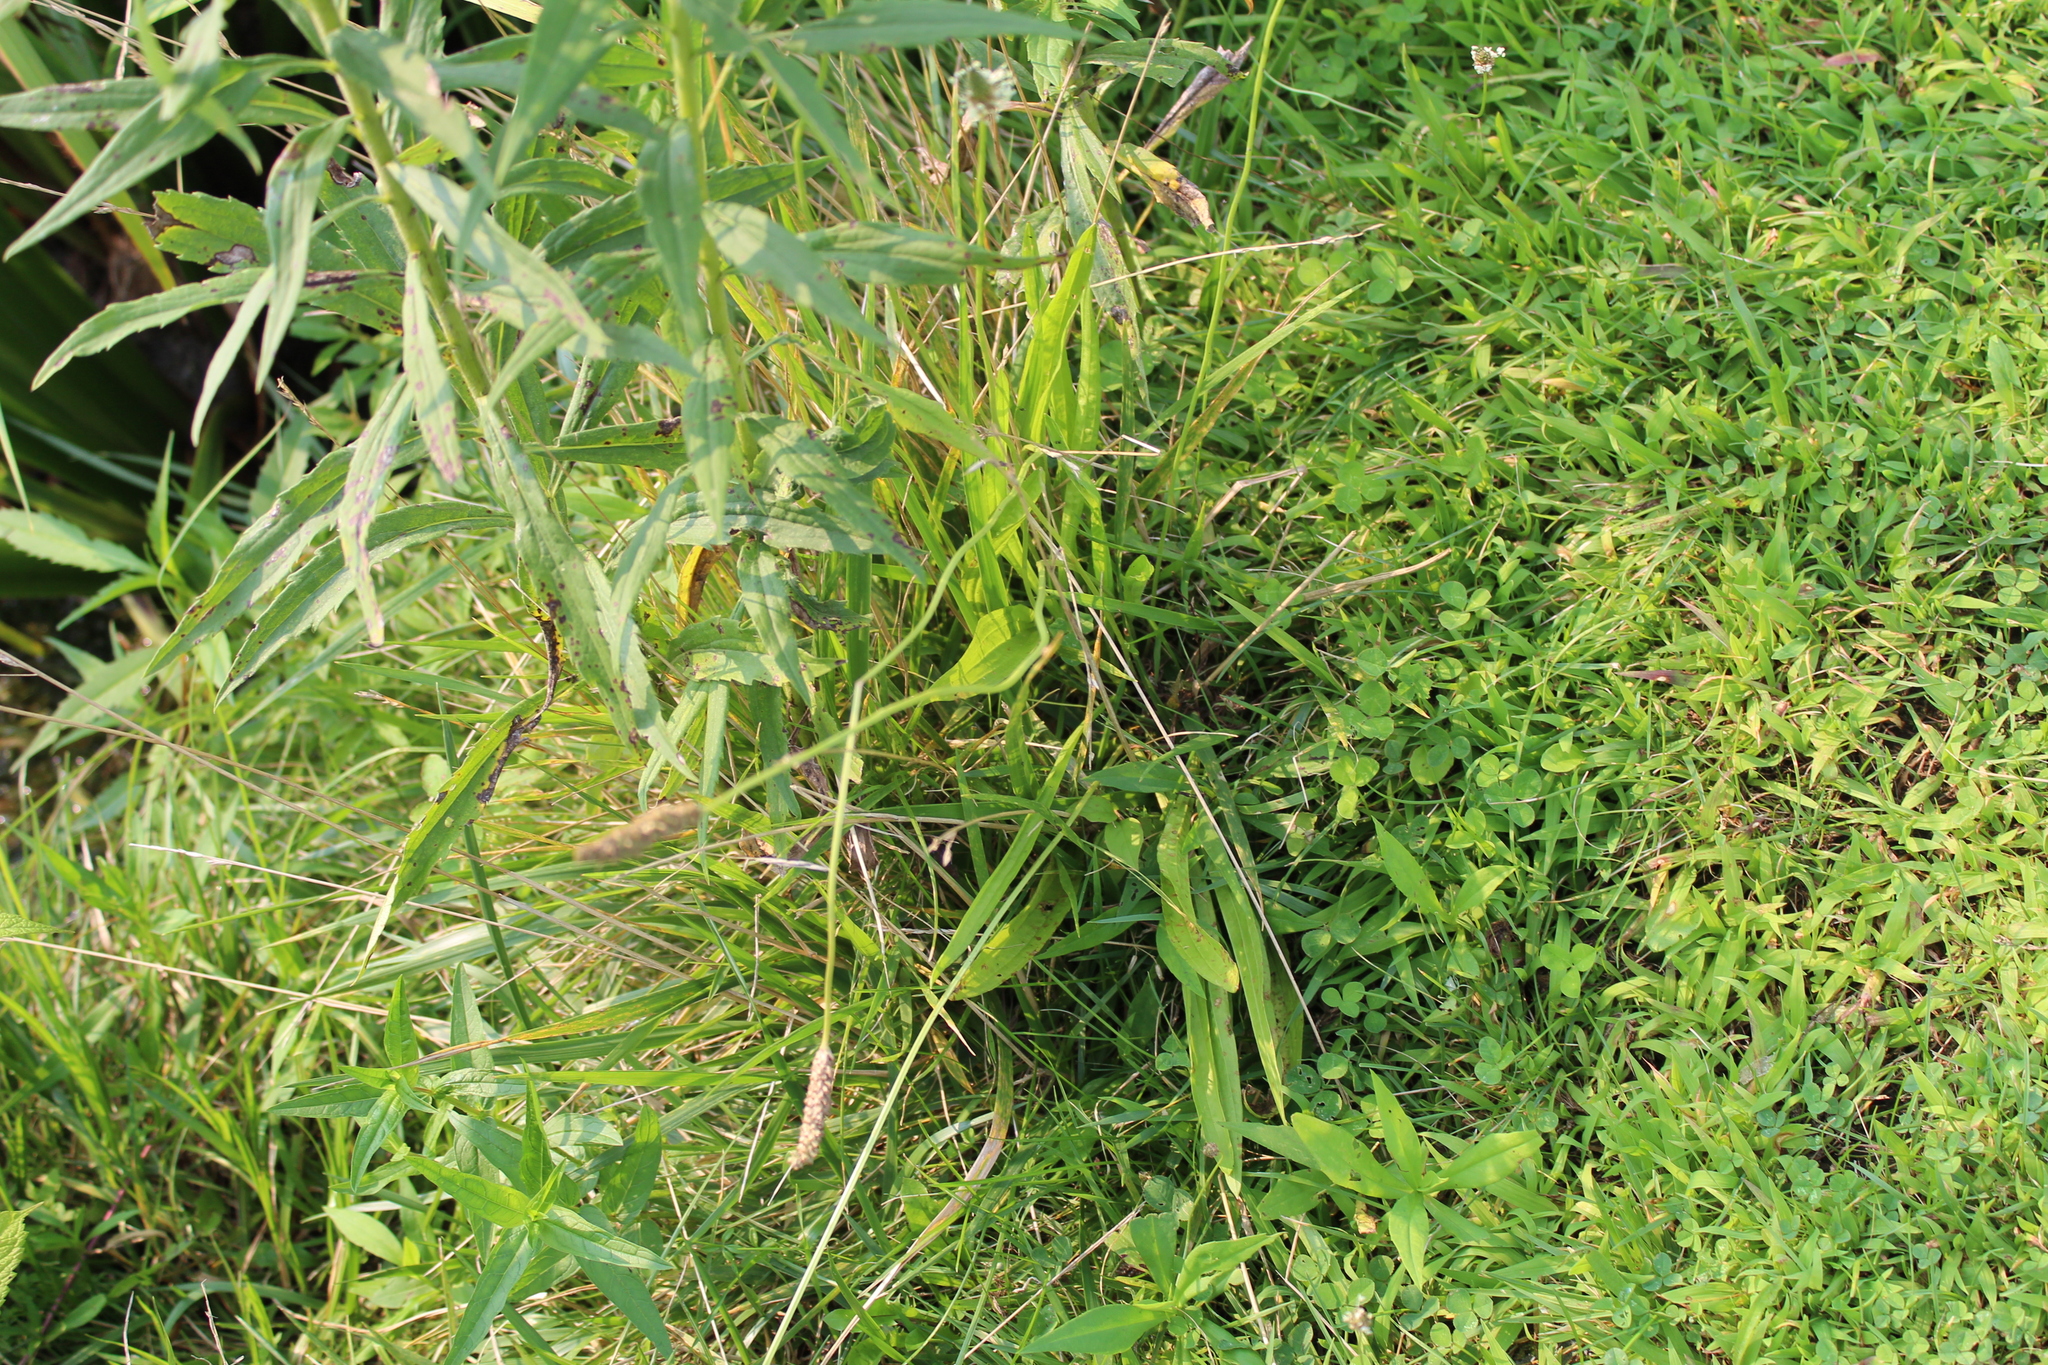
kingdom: Plantae
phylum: Tracheophyta
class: Magnoliopsida
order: Lamiales
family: Plantaginaceae
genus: Plantago
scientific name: Plantago lanceolata
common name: Ribwort plantain
